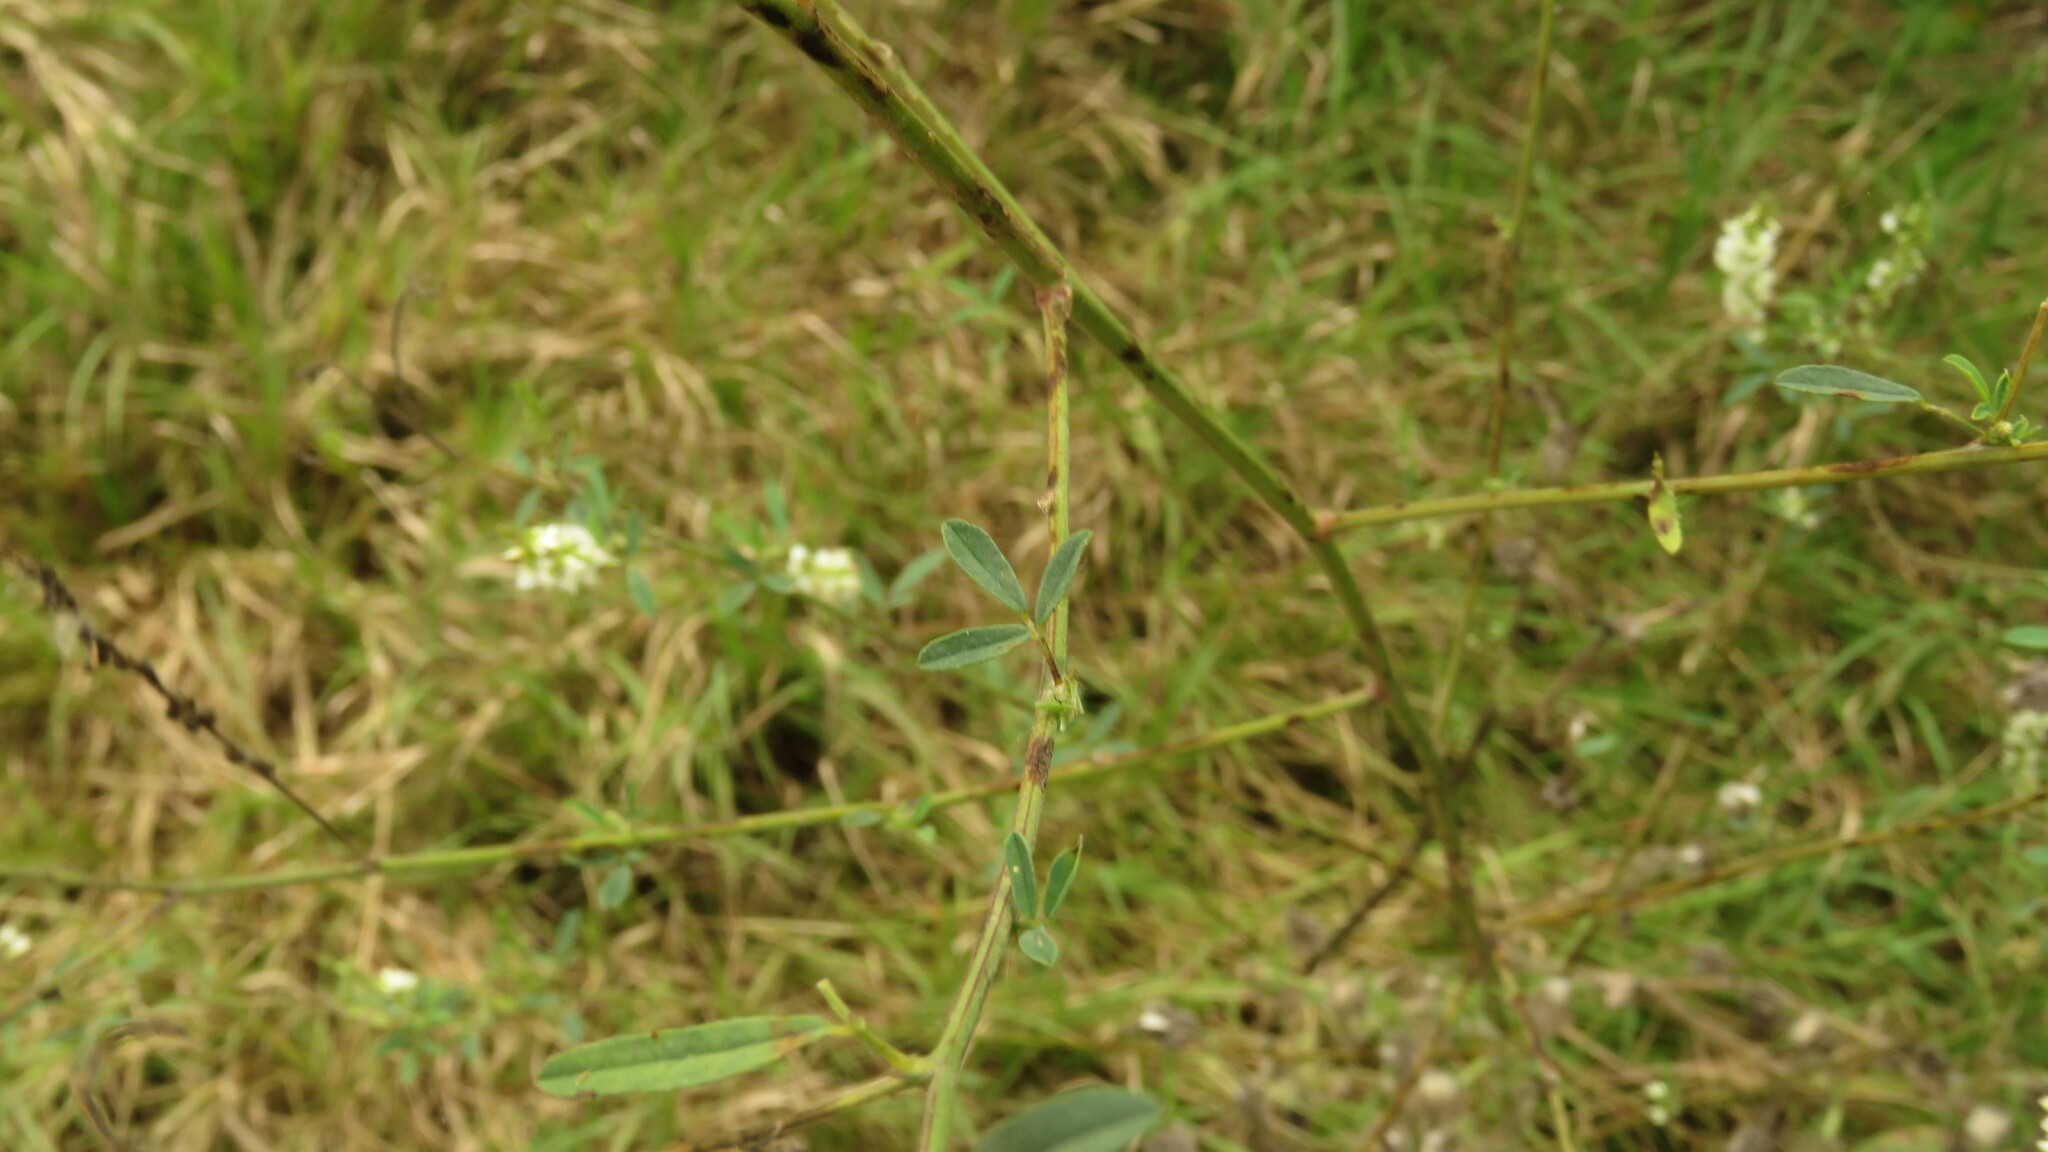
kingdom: Plantae
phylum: Tracheophyta
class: Magnoliopsida
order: Fabales
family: Fabaceae
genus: Melilotus
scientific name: Melilotus albus
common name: White melilot
